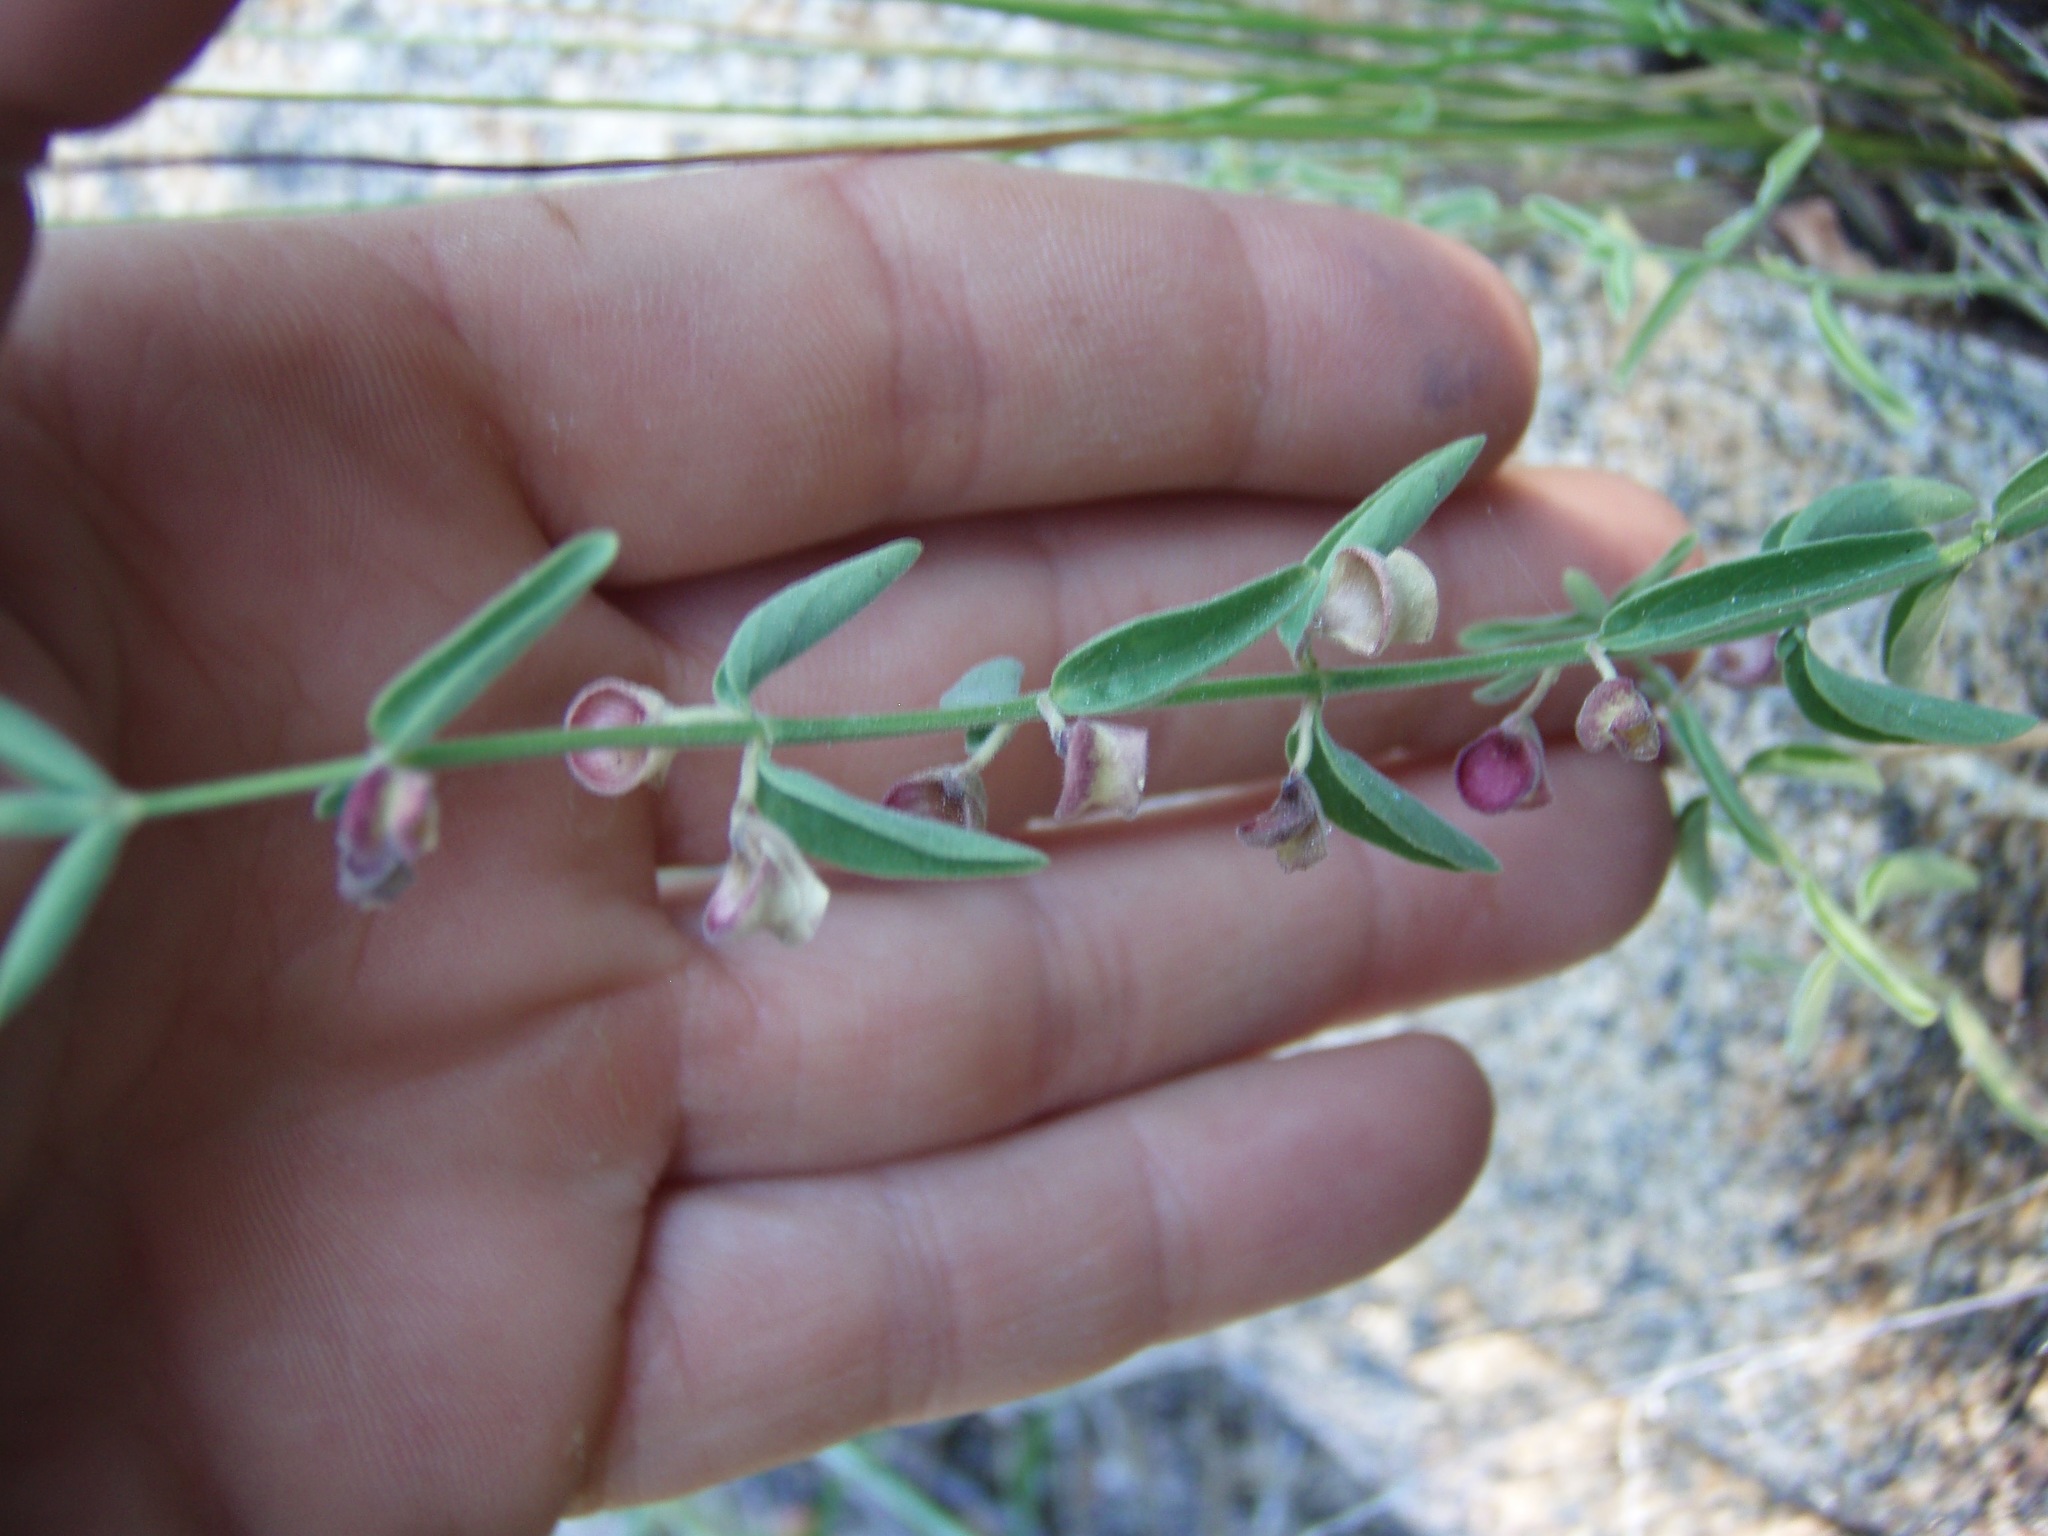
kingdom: Plantae
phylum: Tracheophyta
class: Magnoliopsida
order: Lamiales
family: Lamiaceae
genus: Scutellaria
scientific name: Scutellaria californica
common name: California scullcap
